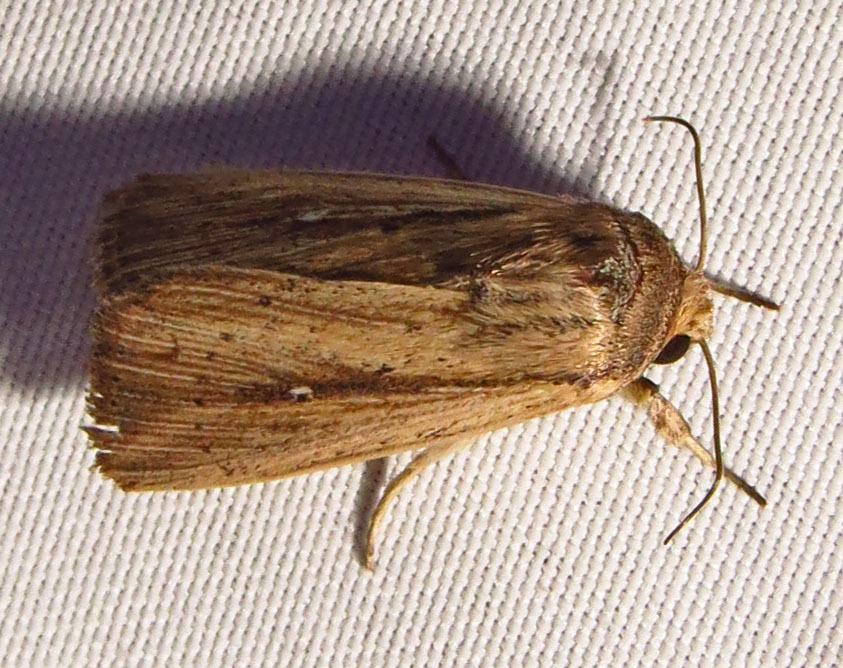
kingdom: Animalia
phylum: Arthropoda
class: Insecta
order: Lepidoptera
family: Noctuidae
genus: Leucania
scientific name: Leucania incognita
